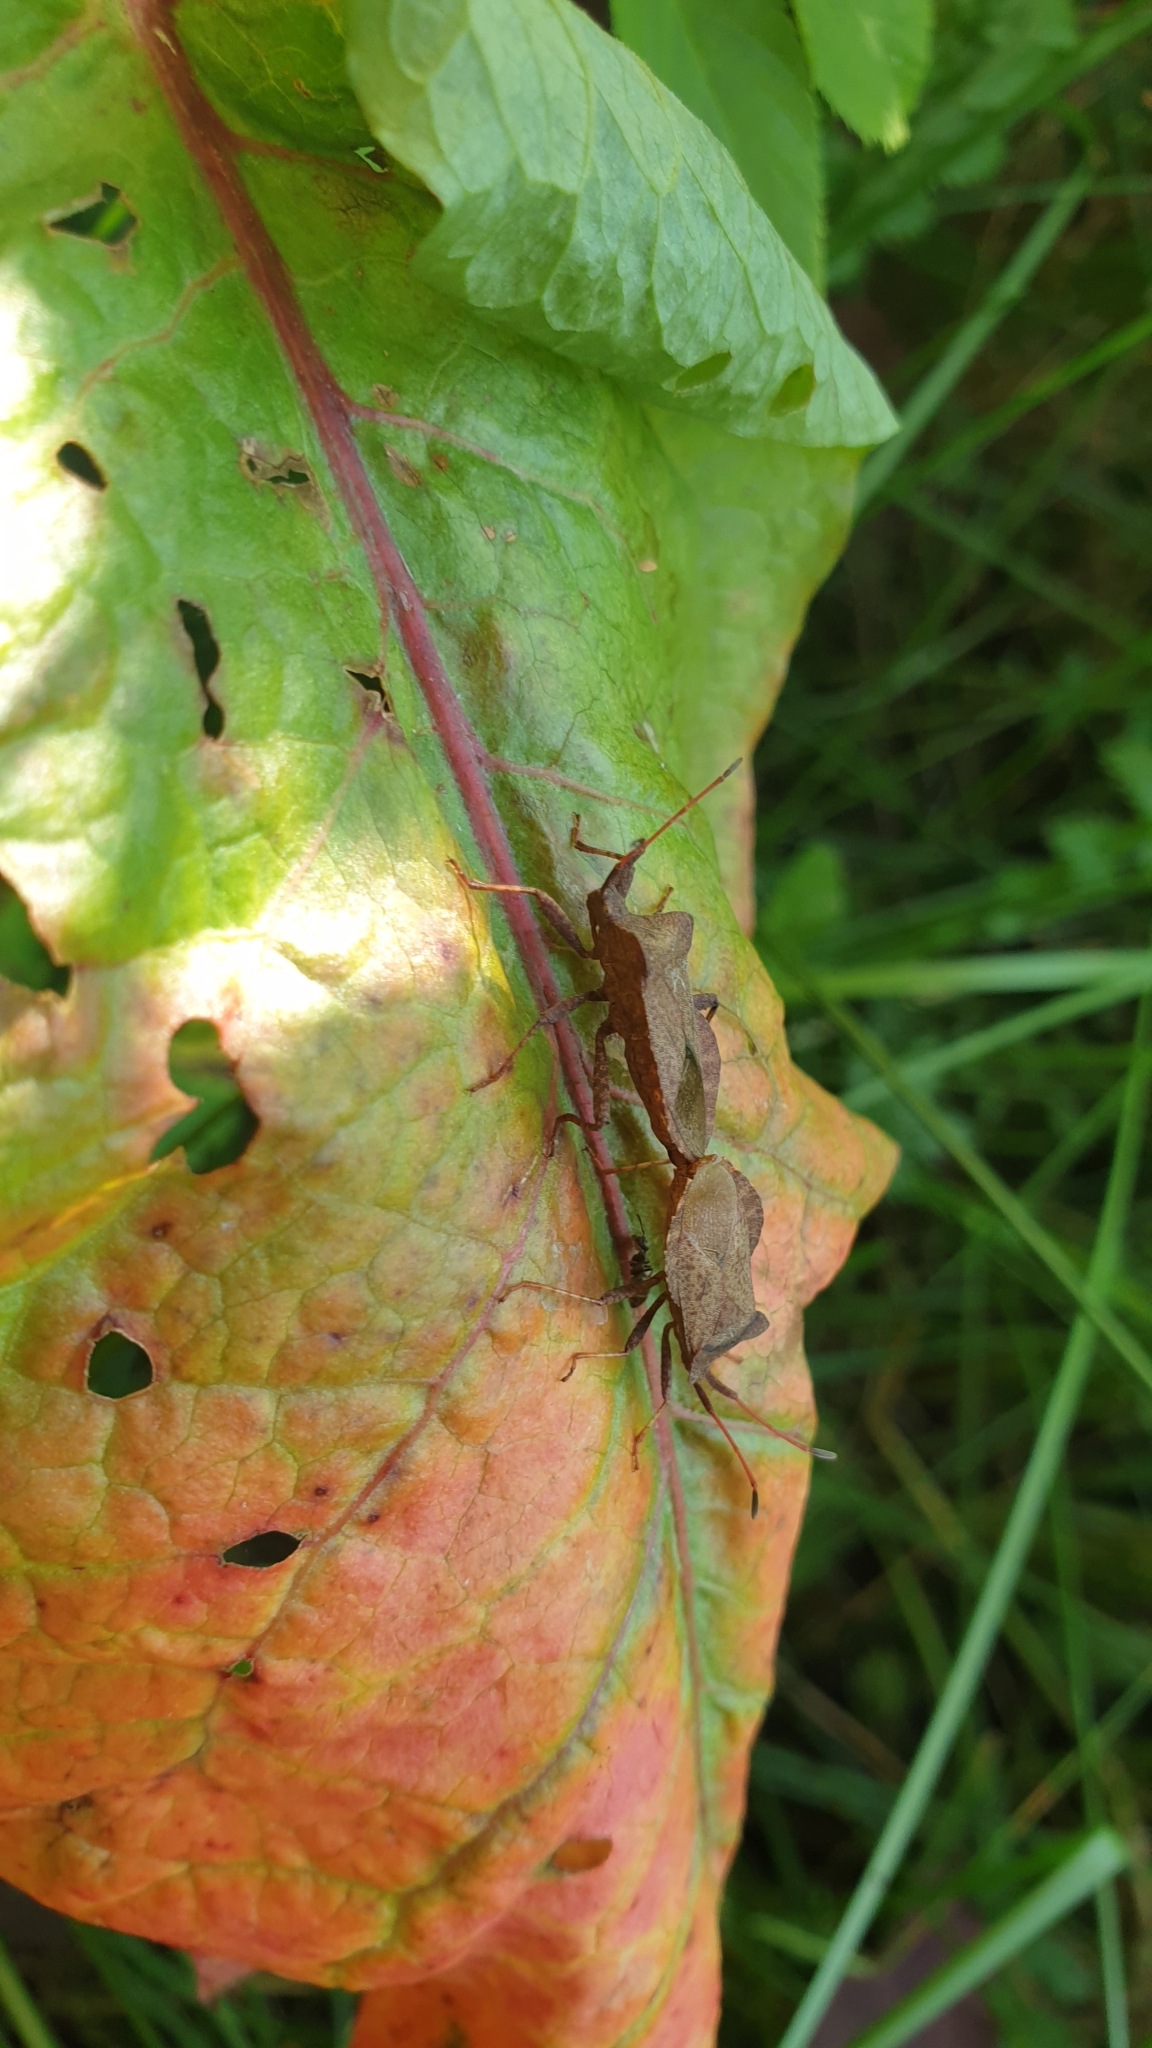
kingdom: Animalia
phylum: Arthropoda
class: Insecta
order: Hemiptera
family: Coreidae
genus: Coreus
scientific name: Coreus marginatus
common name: Dock bug
